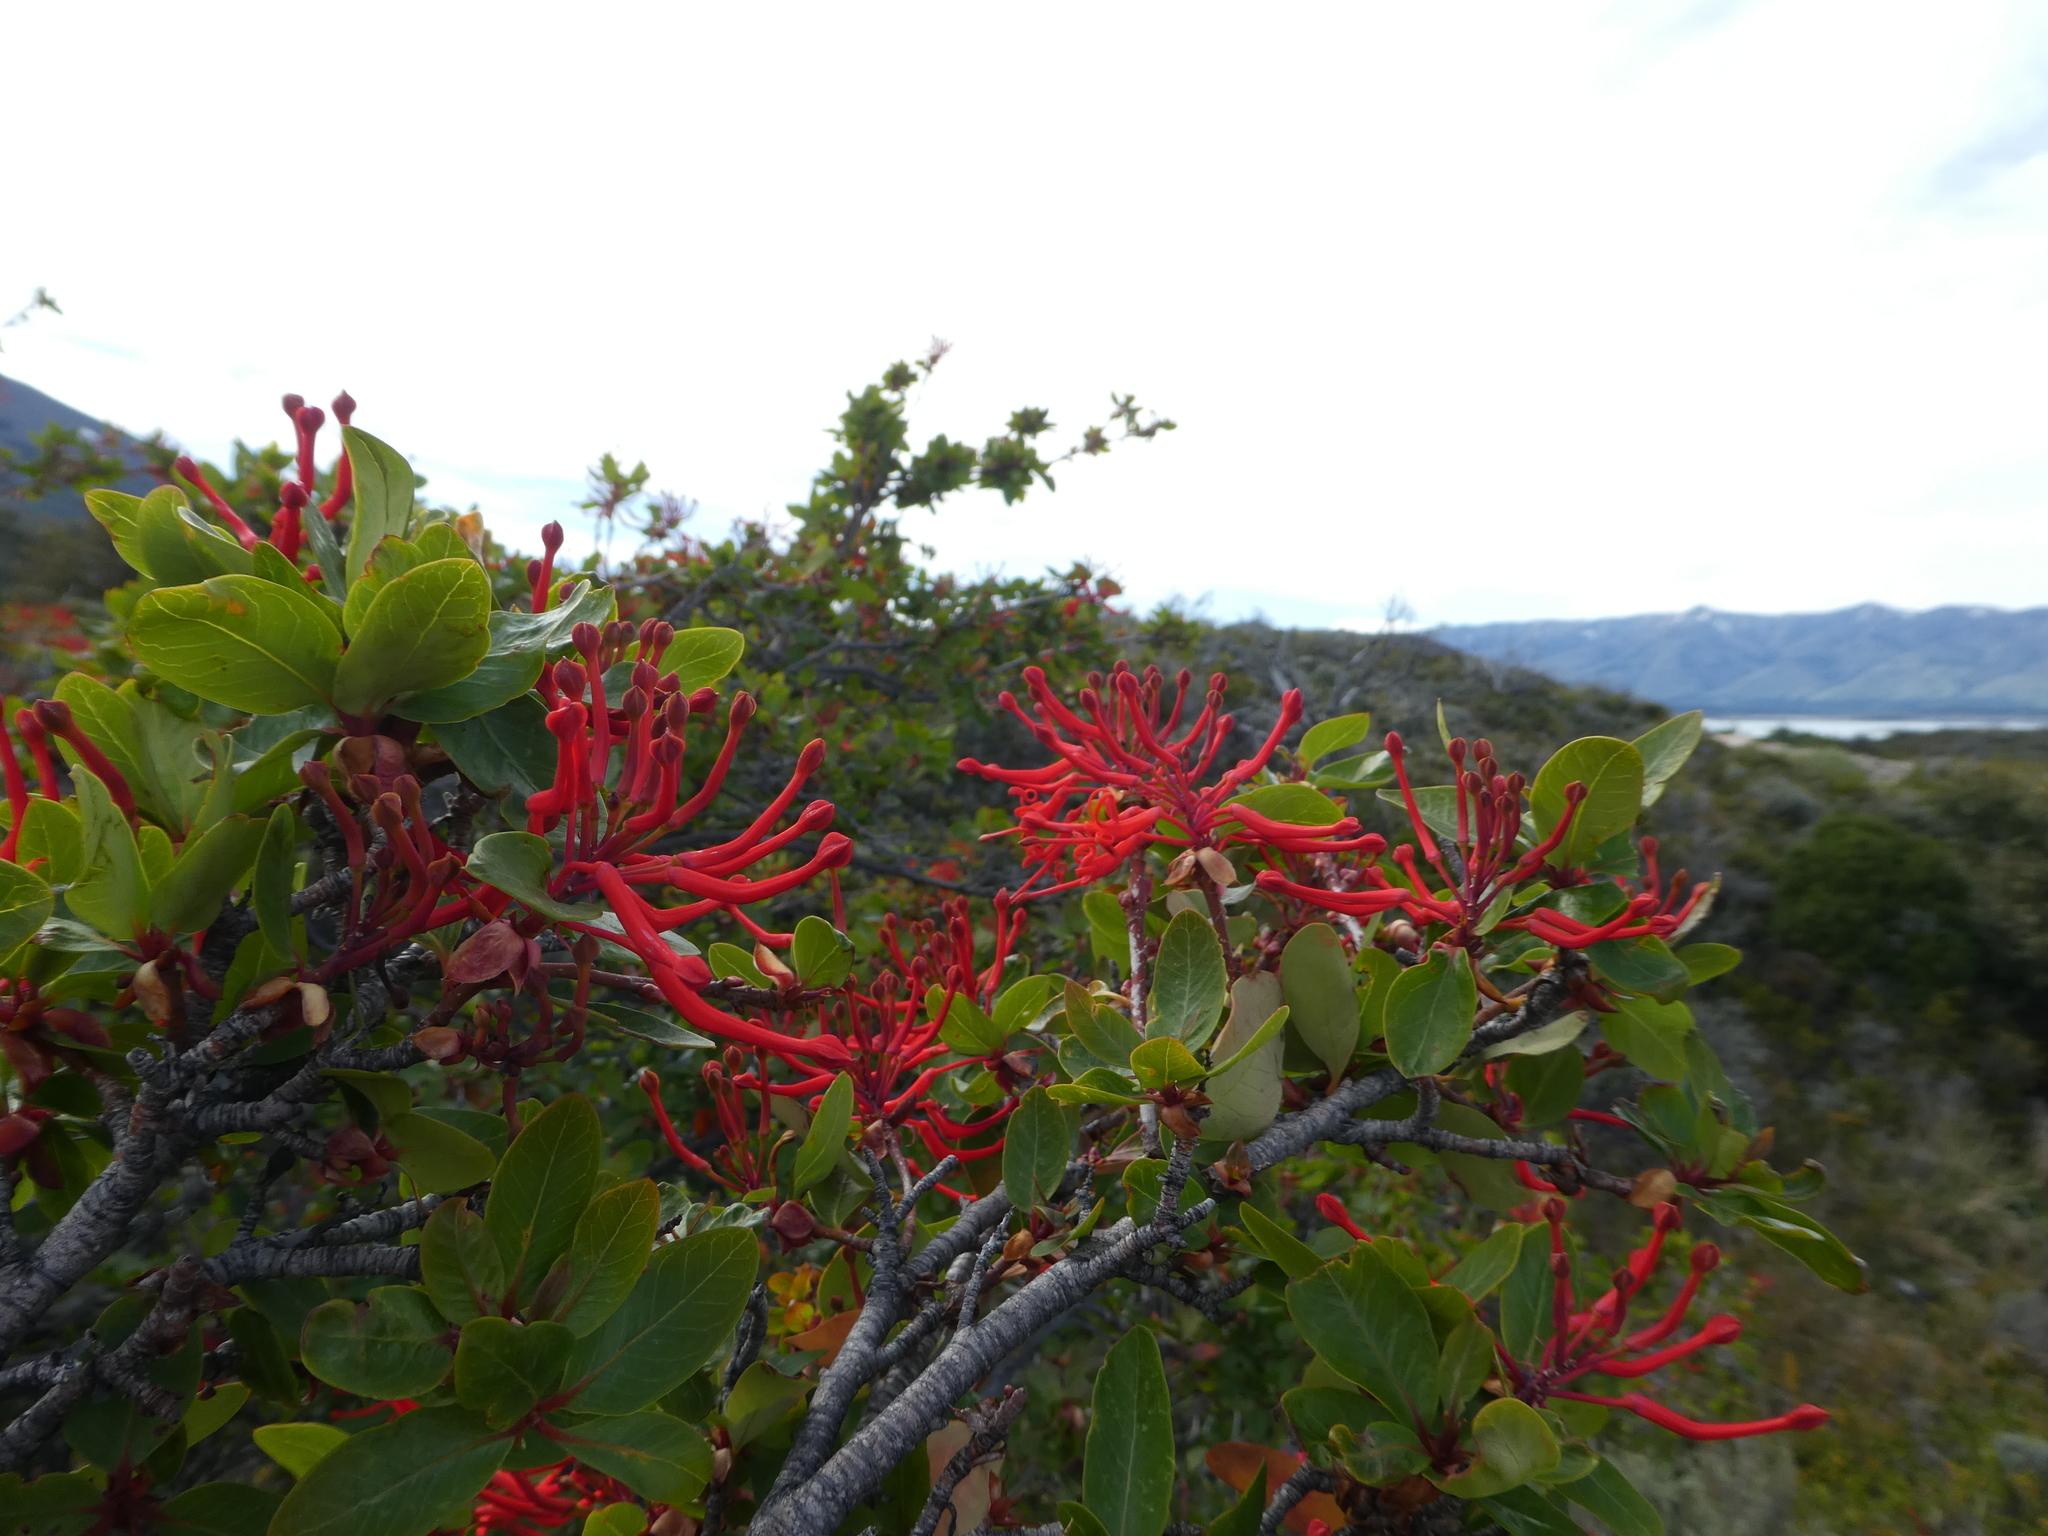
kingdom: Plantae
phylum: Tracheophyta
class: Magnoliopsida
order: Proteales
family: Proteaceae
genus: Embothrium
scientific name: Embothrium coccineum
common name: Chilean firebush
